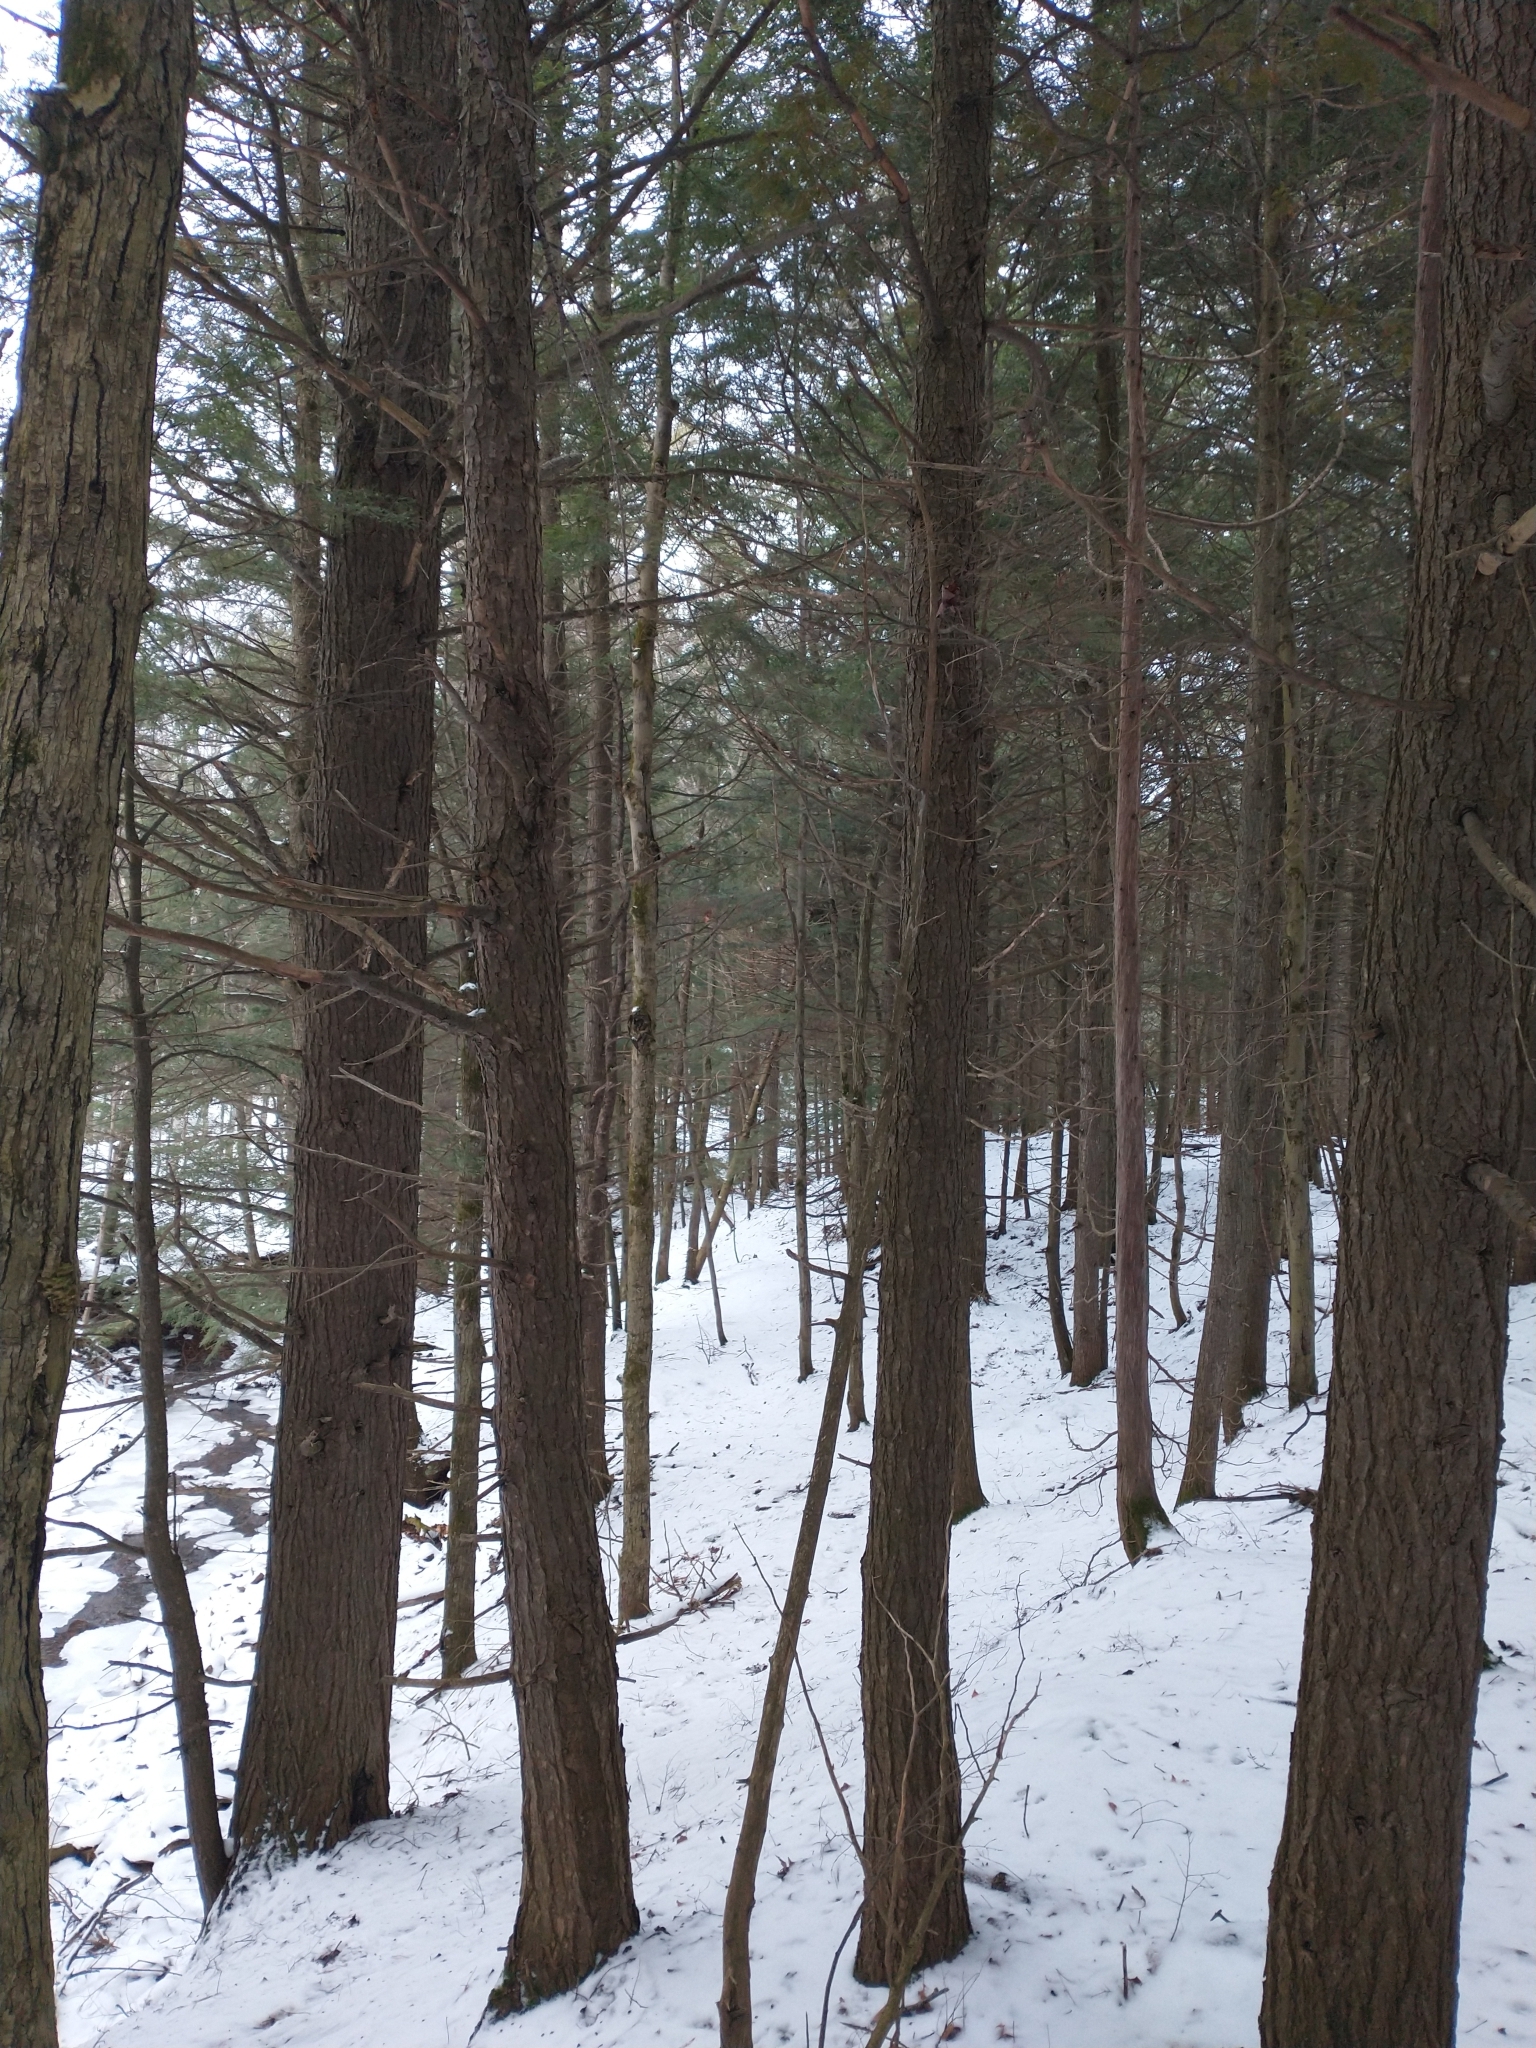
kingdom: Plantae
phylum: Tracheophyta
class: Pinopsida
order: Pinales
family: Pinaceae
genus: Tsuga
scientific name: Tsuga canadensis
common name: Eastern hemlock
